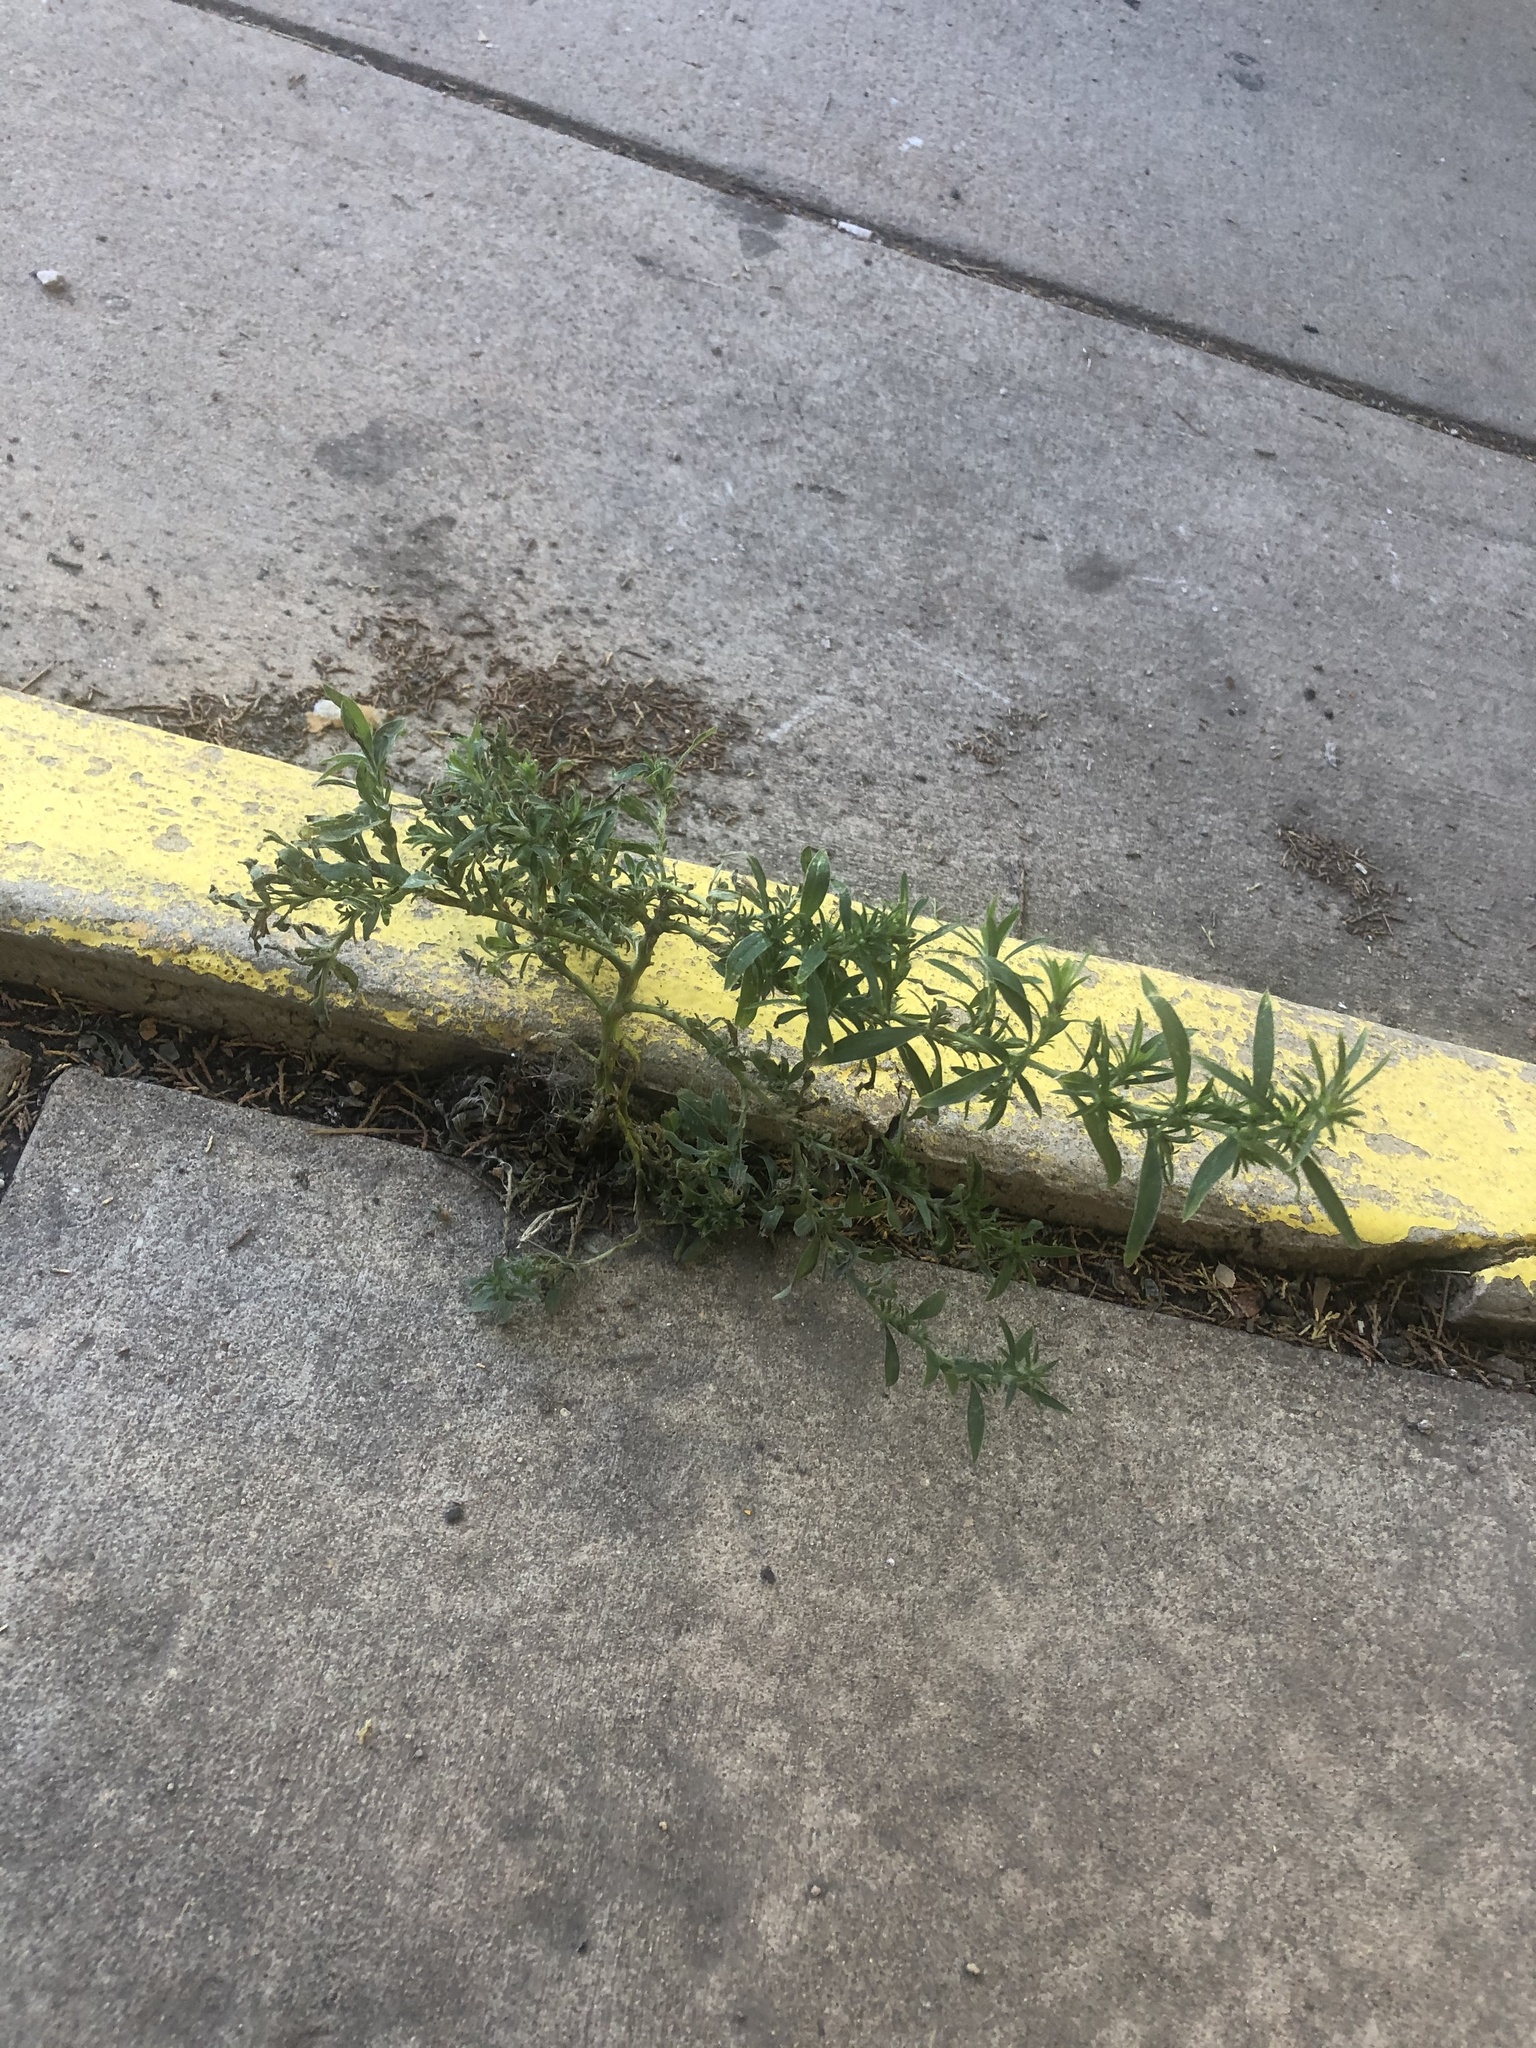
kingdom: Plantae
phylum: Tracheophyta
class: Magnoliopsida
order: Caryophyllales
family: Amaranthaceae
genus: Bassia
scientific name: Bassia scoparia
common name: Belvedere
